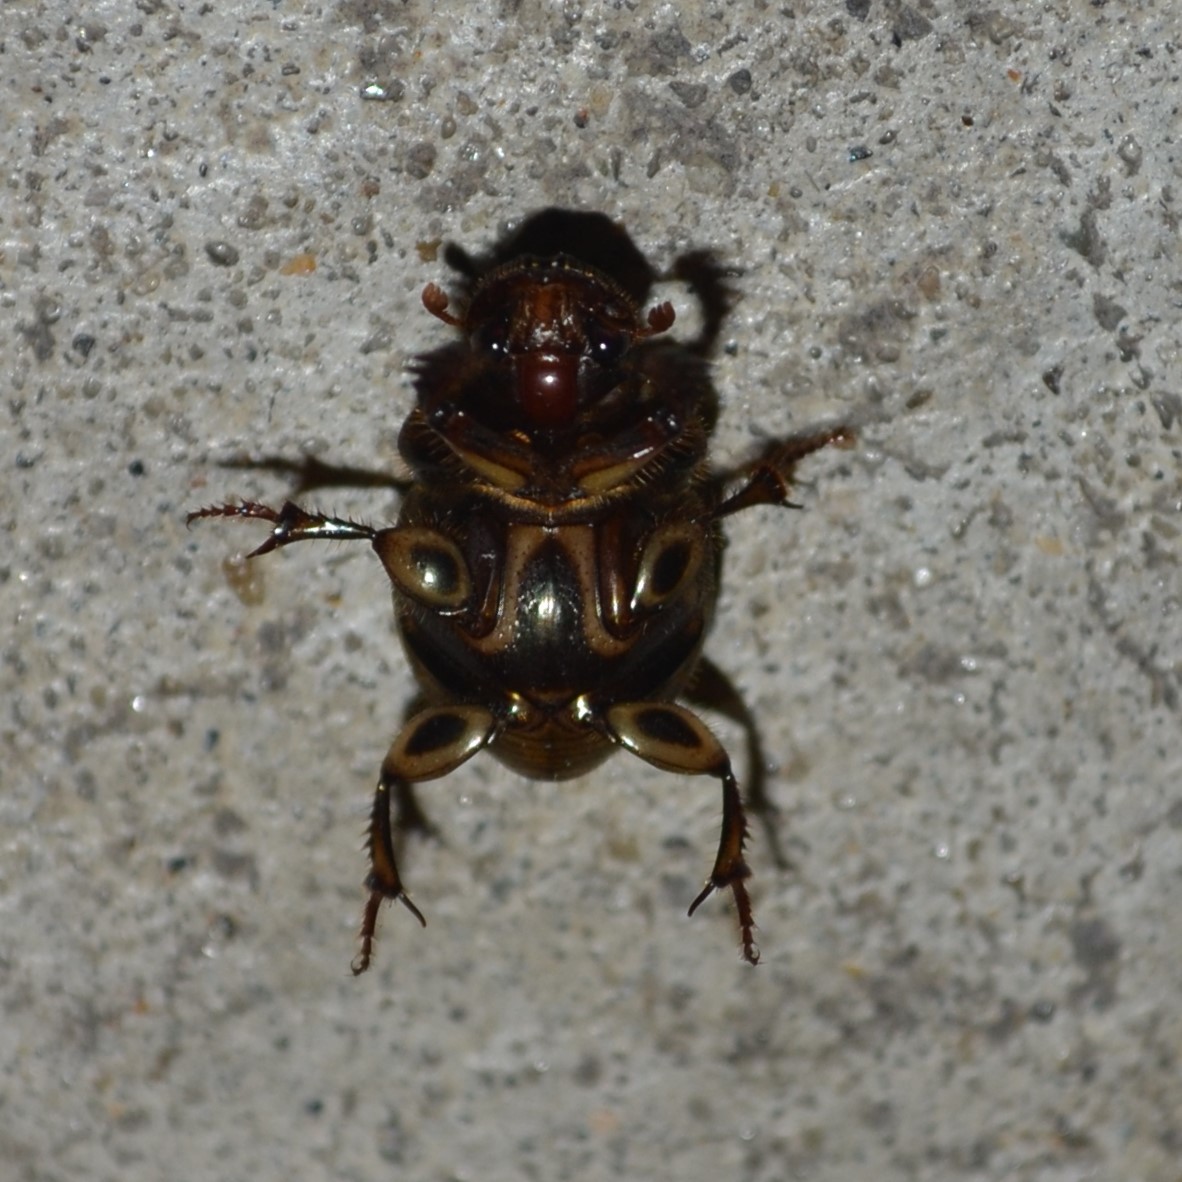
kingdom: Animalia
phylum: Arthropoda
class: Insecta
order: Coleoptera
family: Scarabaeidae
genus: Digitonthophagus
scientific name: Digitonthophagus gazella
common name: Brown dung beetle
